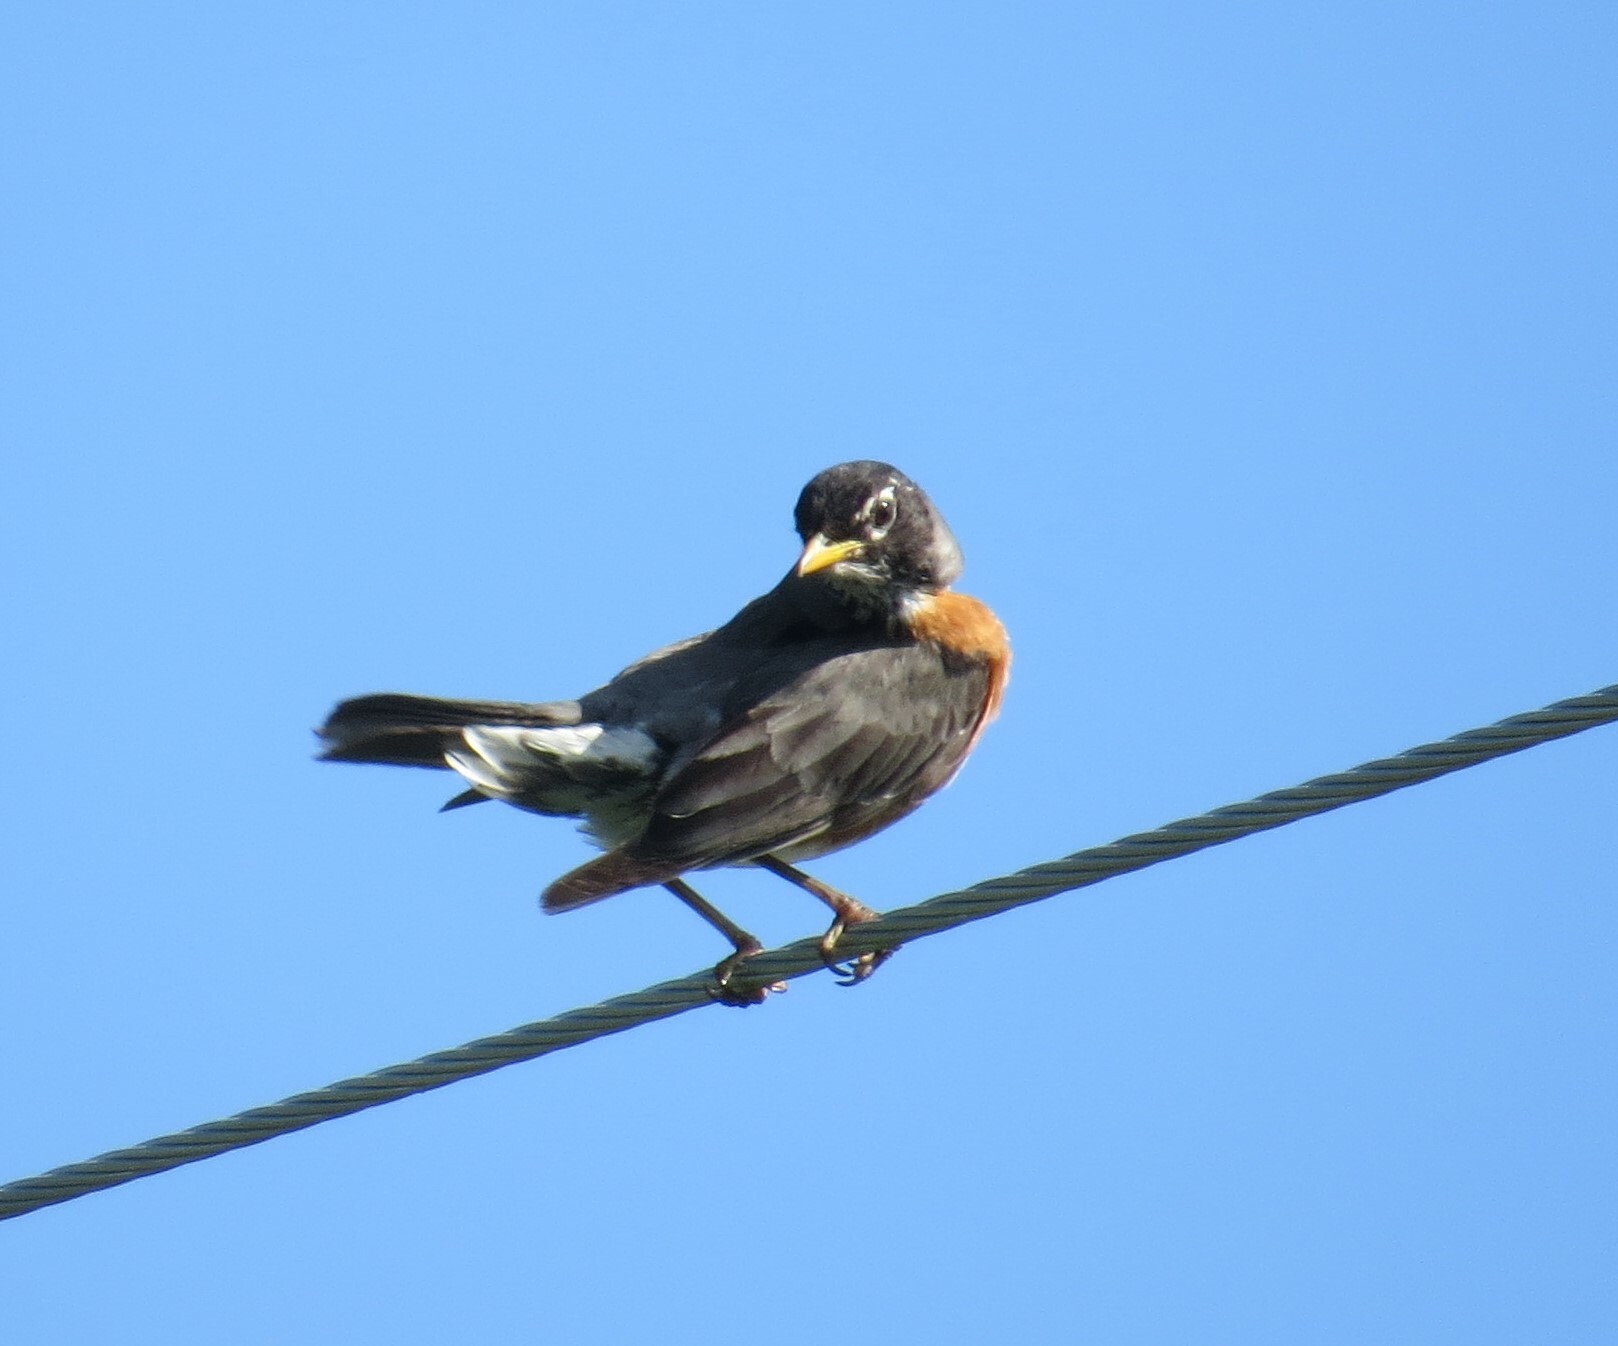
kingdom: Animalia
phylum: Chordata
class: Aves
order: Passeriformes
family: Turdidae
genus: Turdus
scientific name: Turdus migratorius
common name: American robin
